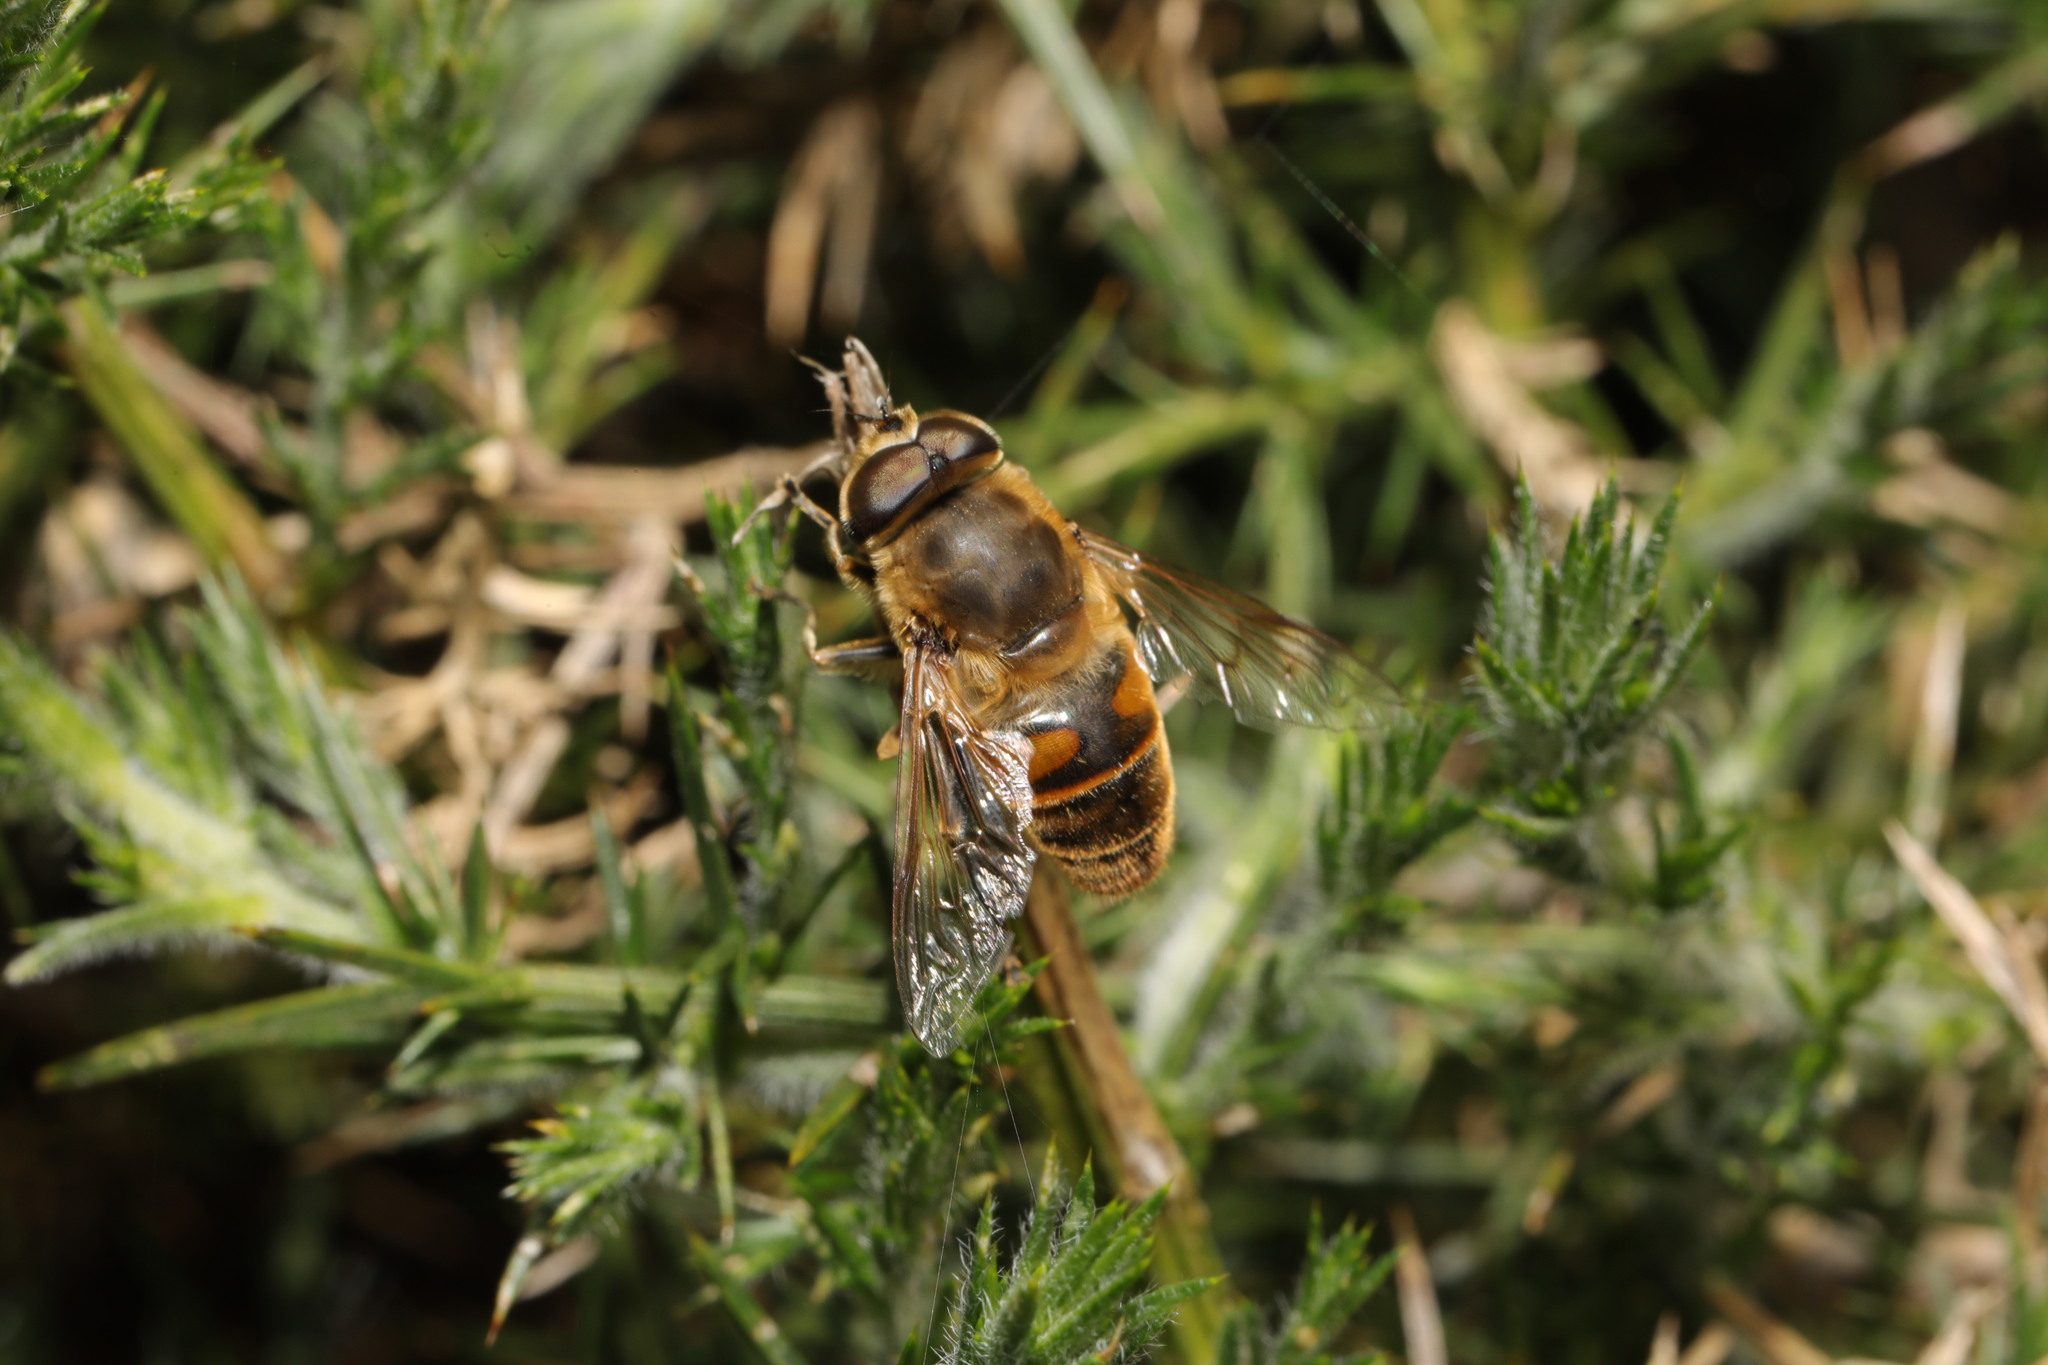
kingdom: Animalia
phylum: Arthropoda
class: Insecta
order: Diptera
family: Syrphidae
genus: Eristalis
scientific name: Eristalis tenax
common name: Drone fly
